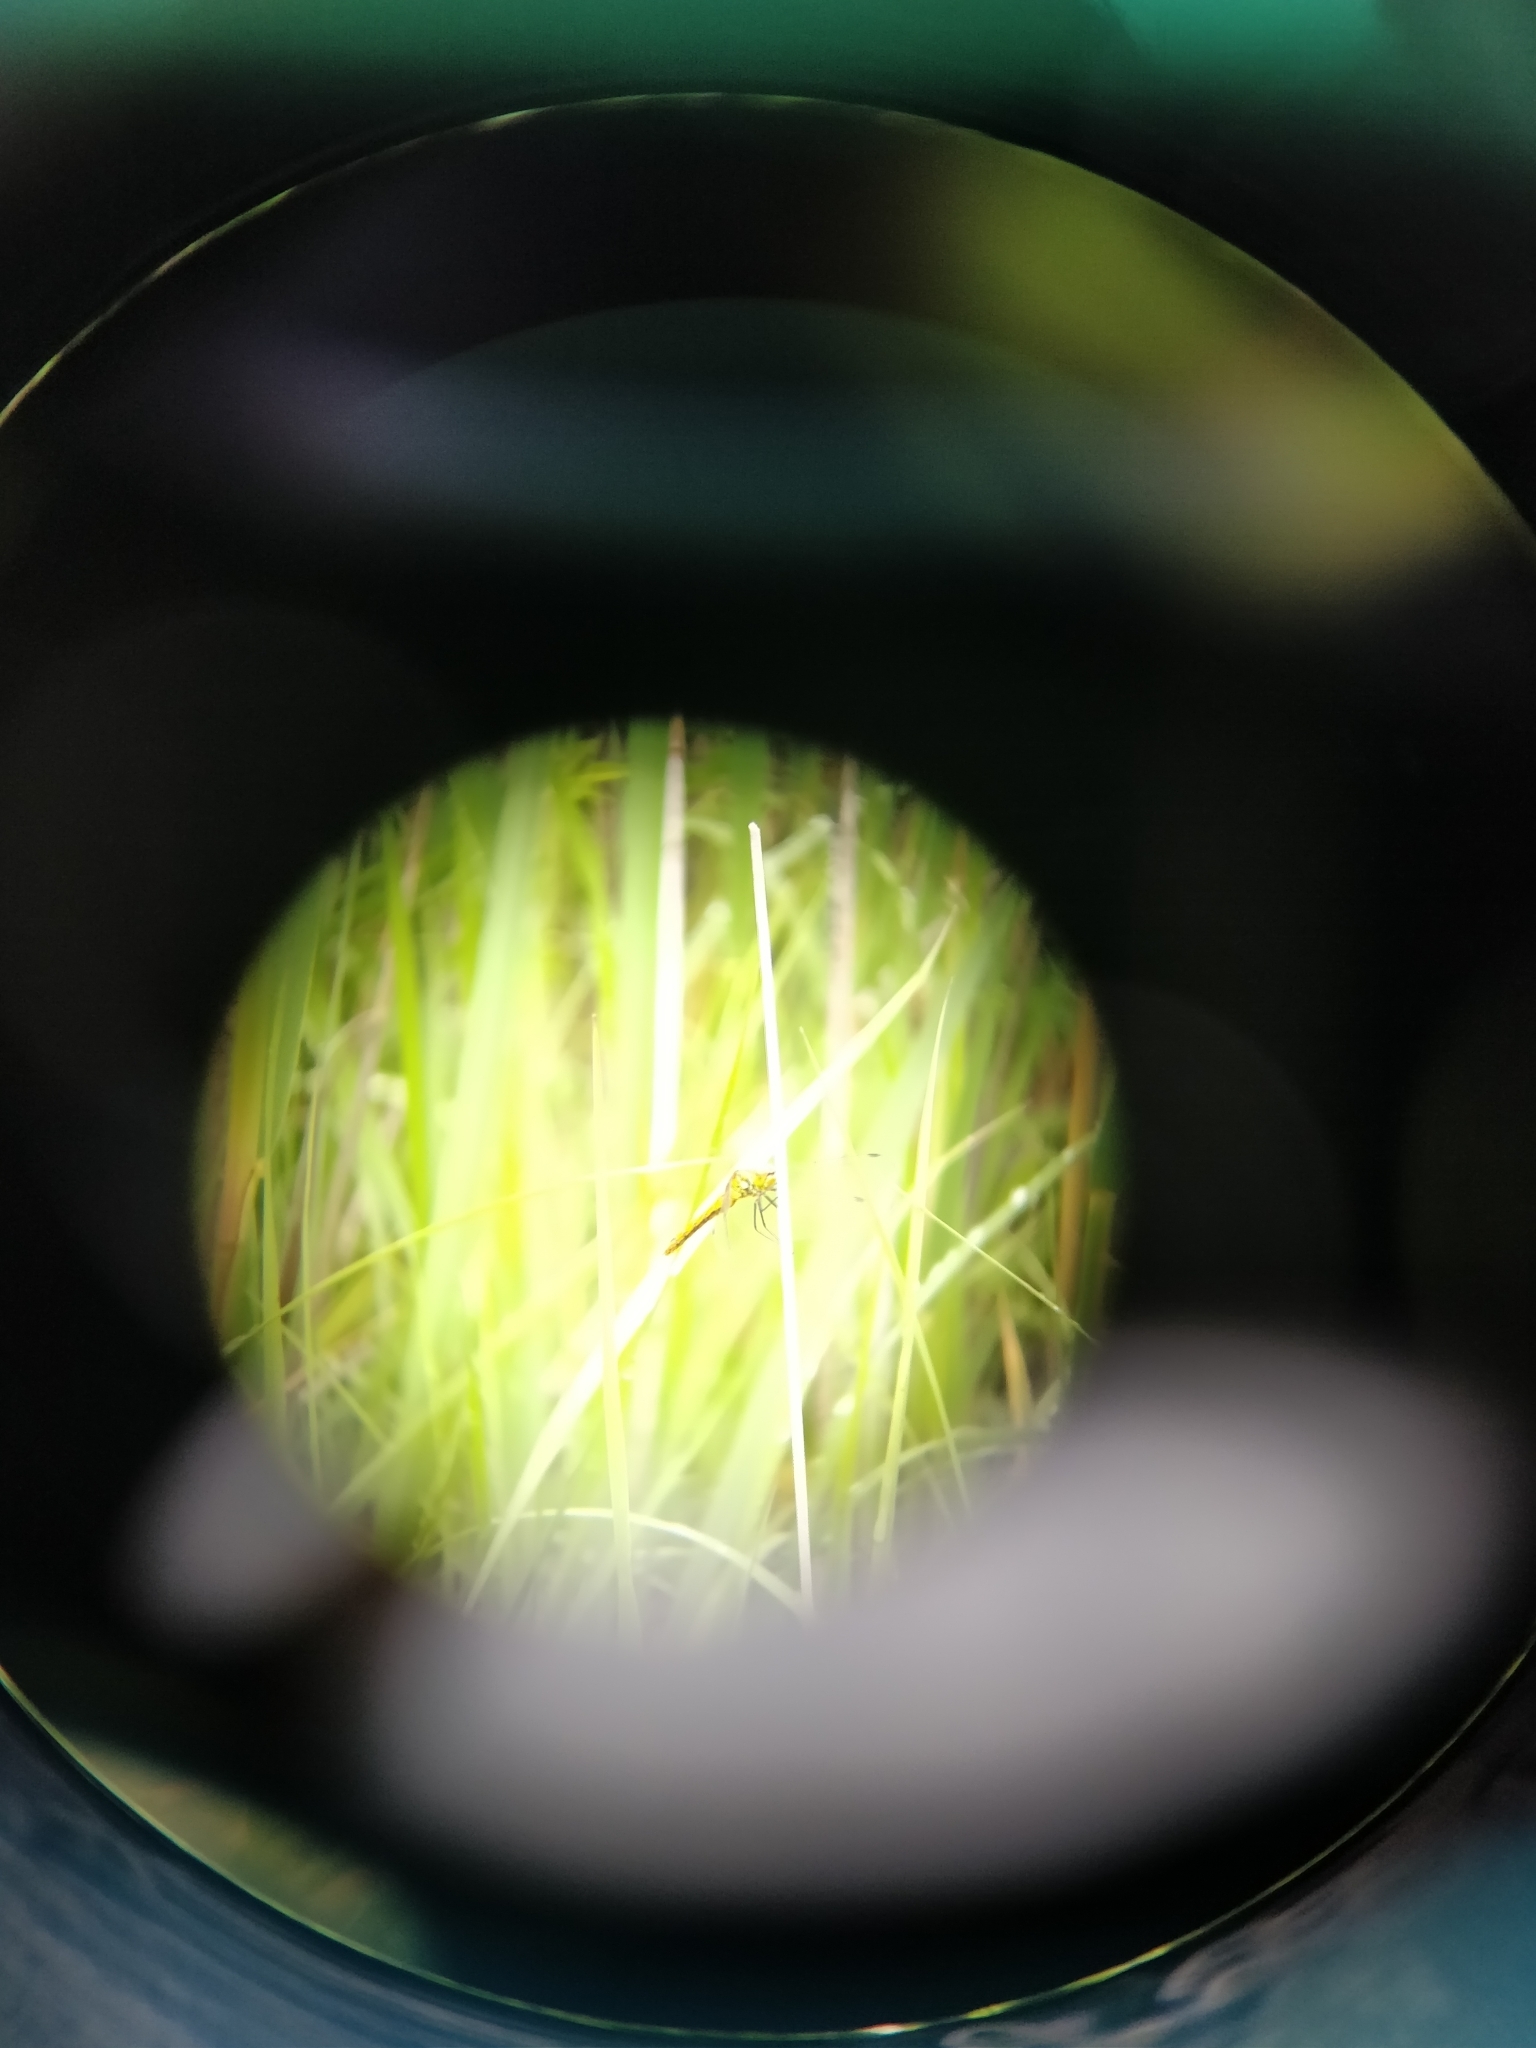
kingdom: Animalia
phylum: Arthropoda
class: Insecta
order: Odonata
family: Libellulidae
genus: Sympetrum
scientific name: Sympetrum sanguineum
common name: Ruddy darter
